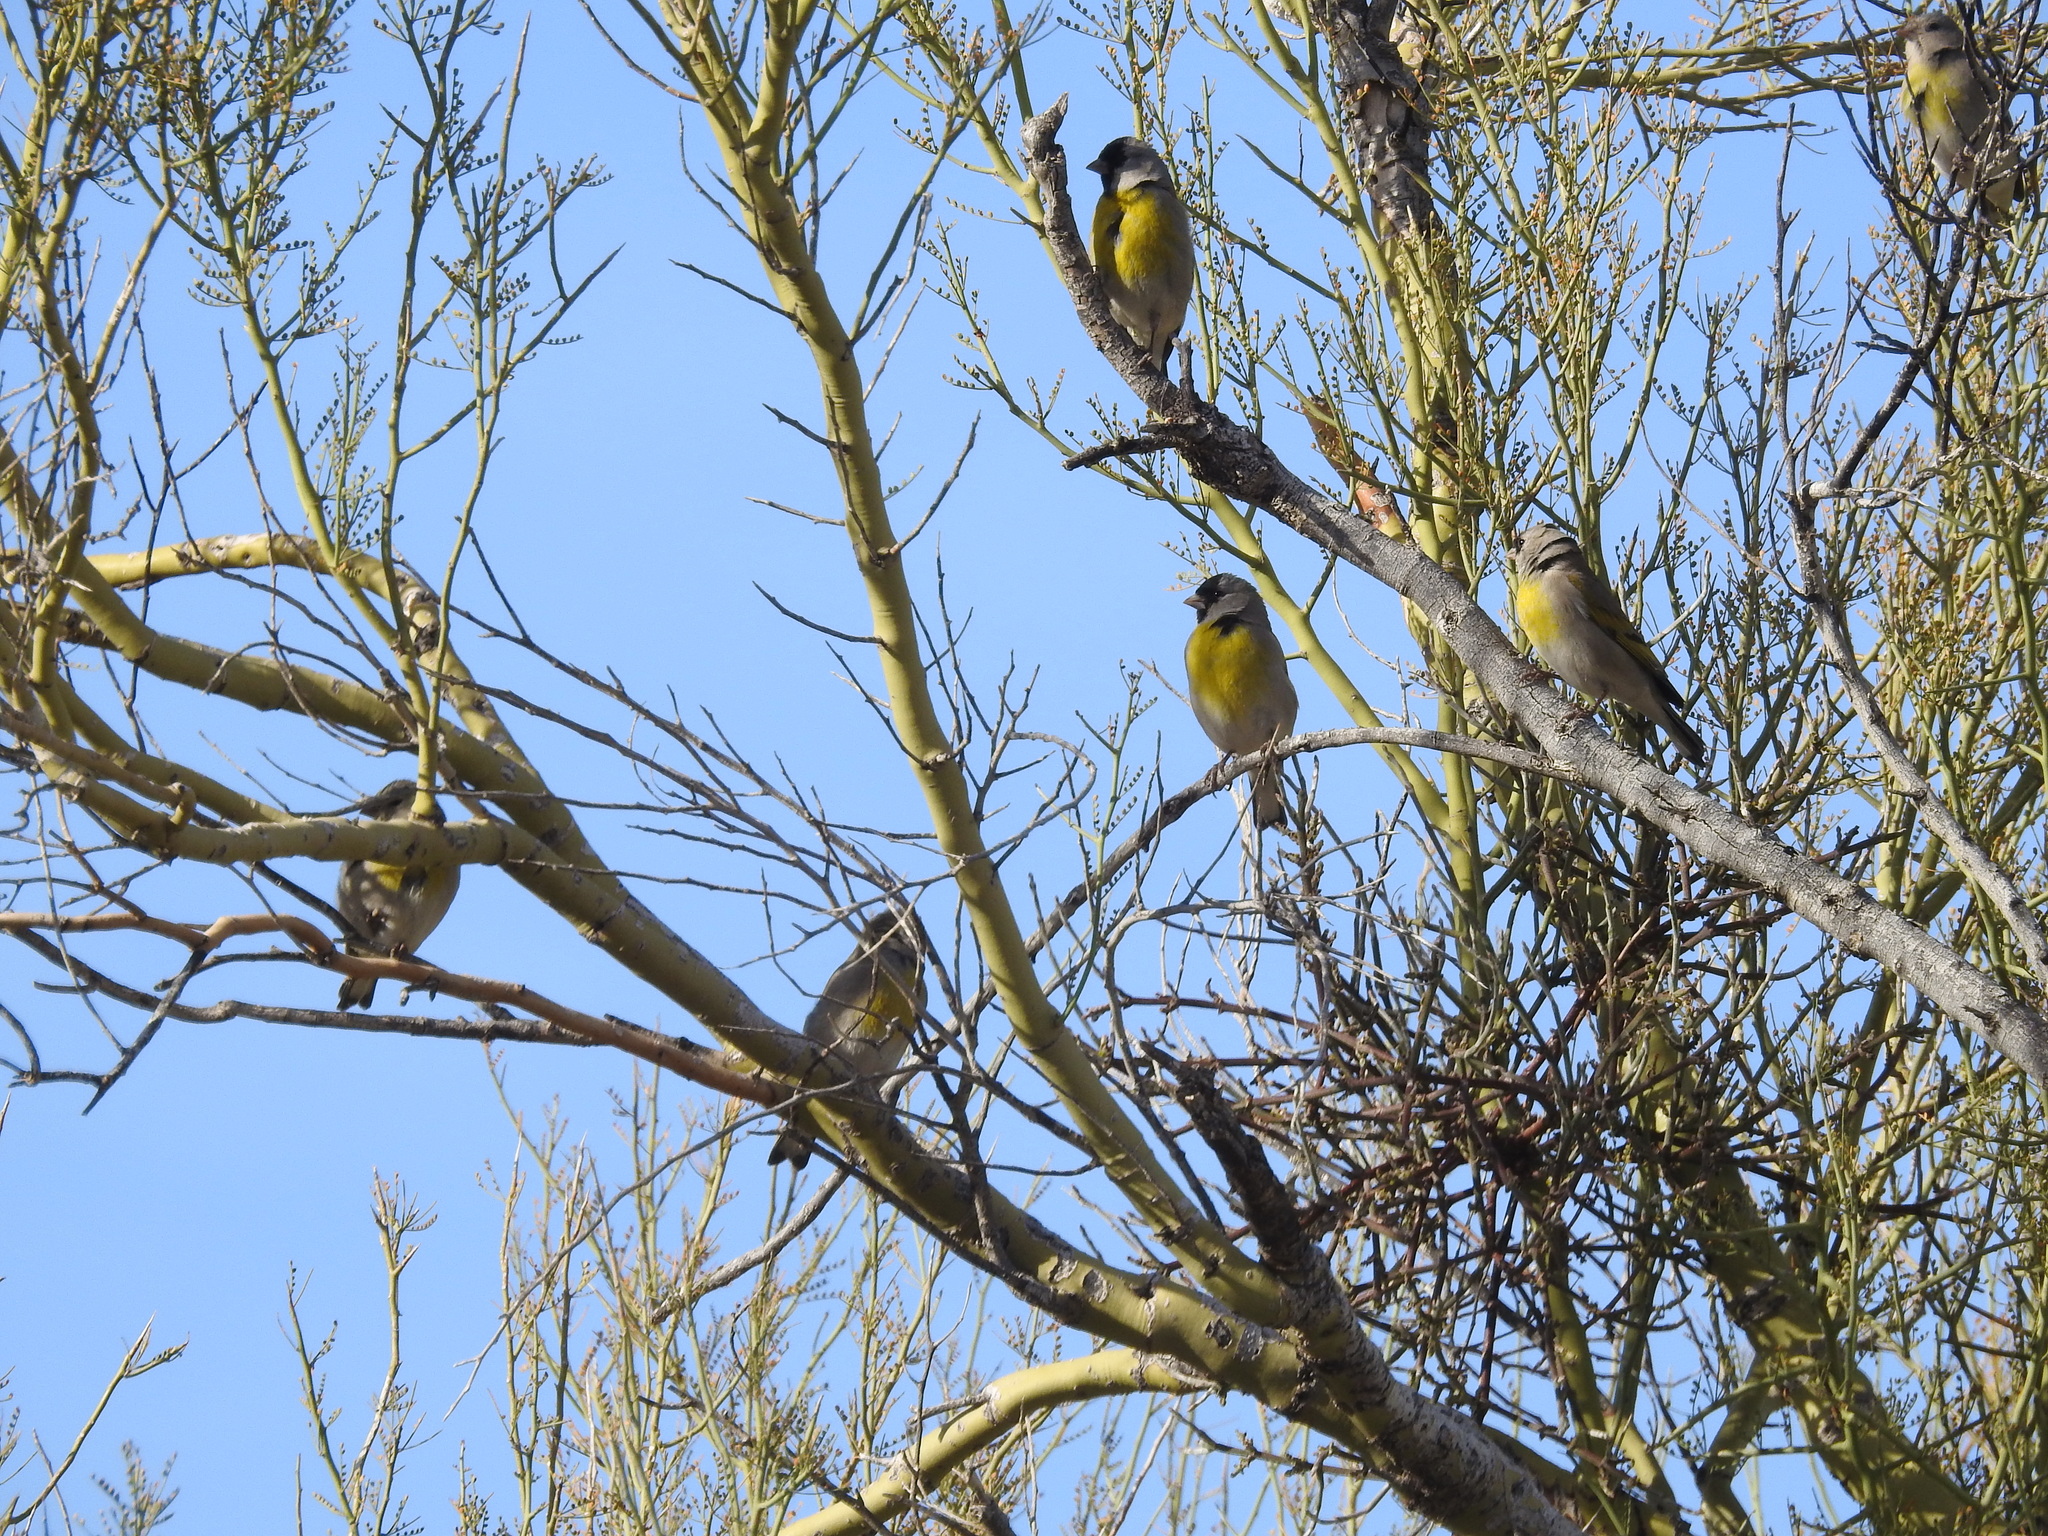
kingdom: Animalia
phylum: Chordata
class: Aves
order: Passeriformes
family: Fringillidae
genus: Spinus
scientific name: Spinus lawrencei
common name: Lawrence's goldfinch
